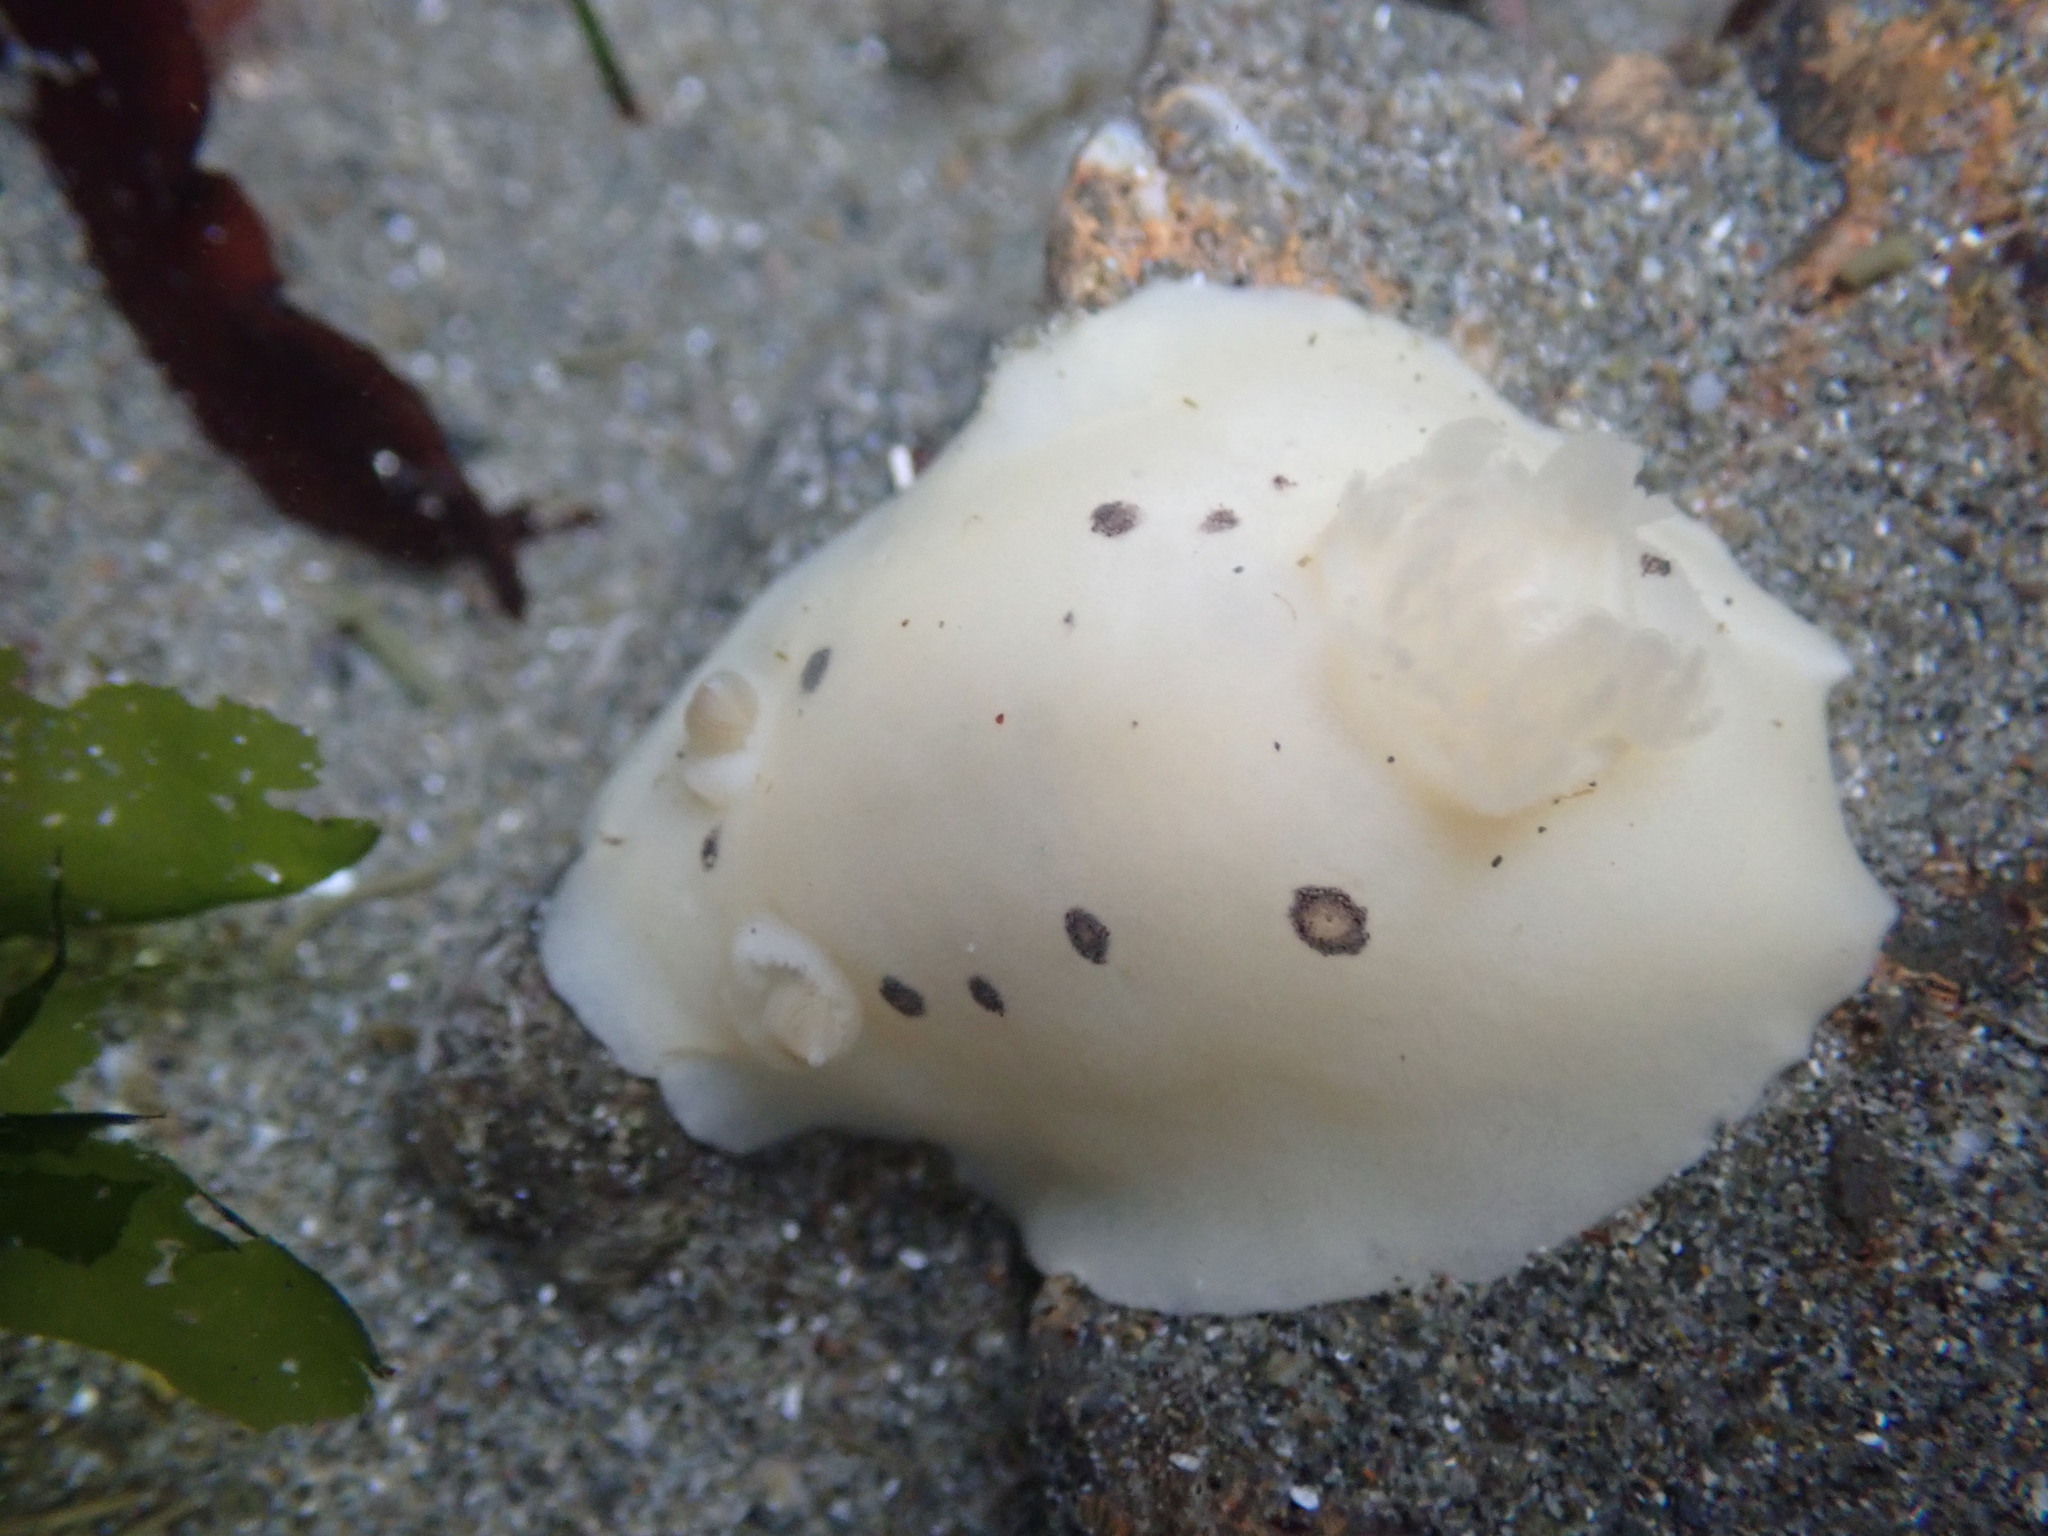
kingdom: Animalia
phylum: Mollusca
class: Gastropoda
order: Nudibranchia
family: Discodorididae
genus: Diaulula
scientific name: Diaulula sandiegensis
